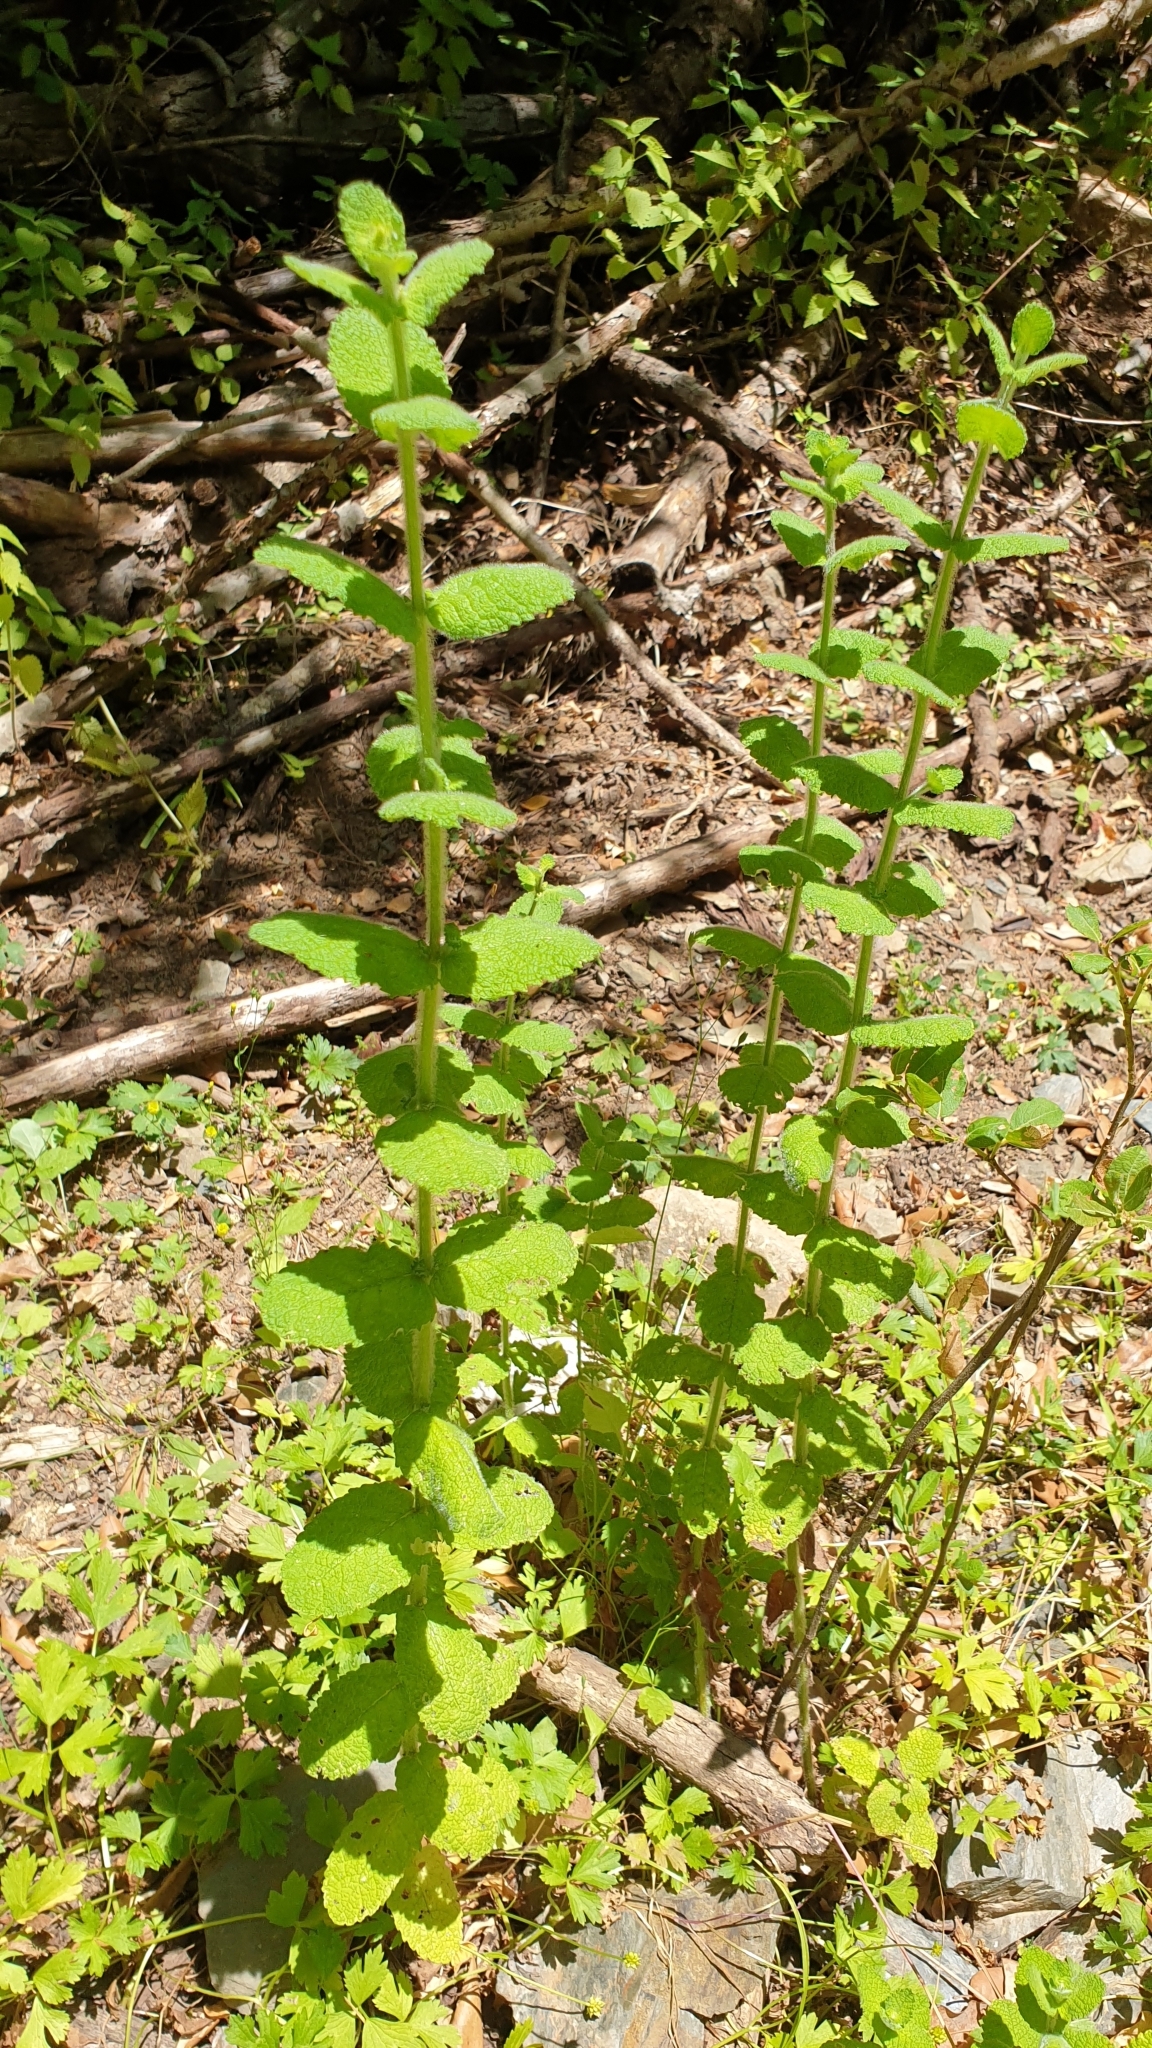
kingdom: Plantae
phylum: Tracheophyta
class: Magnoliopsida
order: Lamiales
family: Lamiaceae
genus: Mentha
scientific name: Mentha suaveolens
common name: Apple mint
